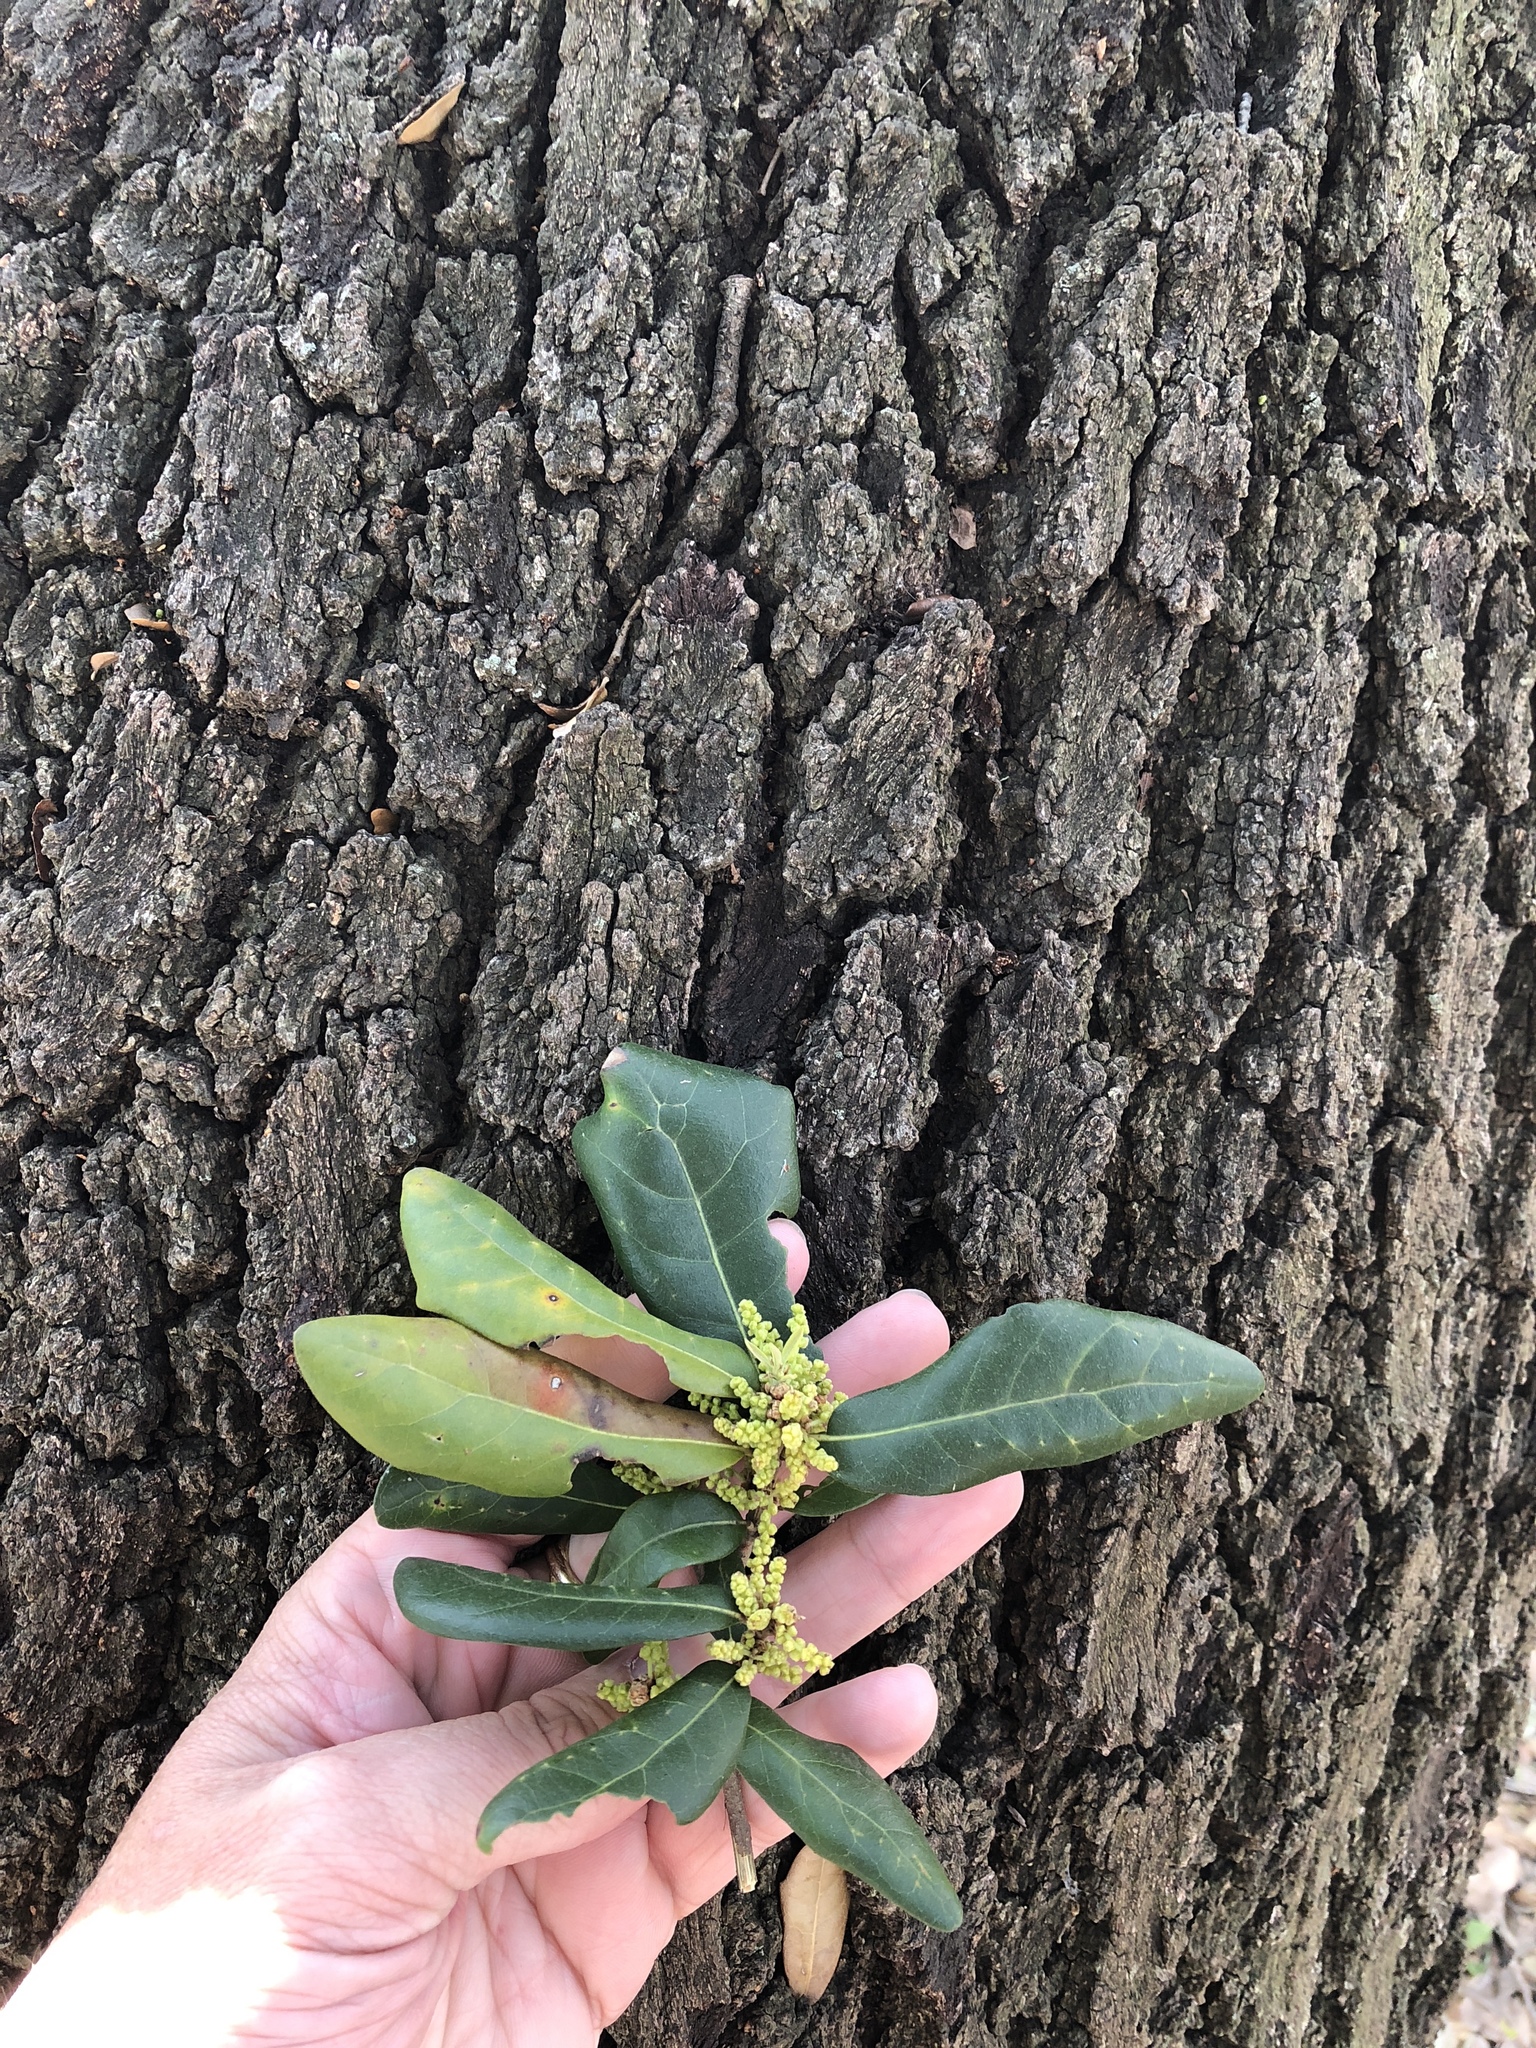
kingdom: Plantae
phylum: Tracheophyta
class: Magnoliopsida
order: Fagales
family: Fagaceae
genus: Quercus
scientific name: Quercus virginiana
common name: Southern live oak
